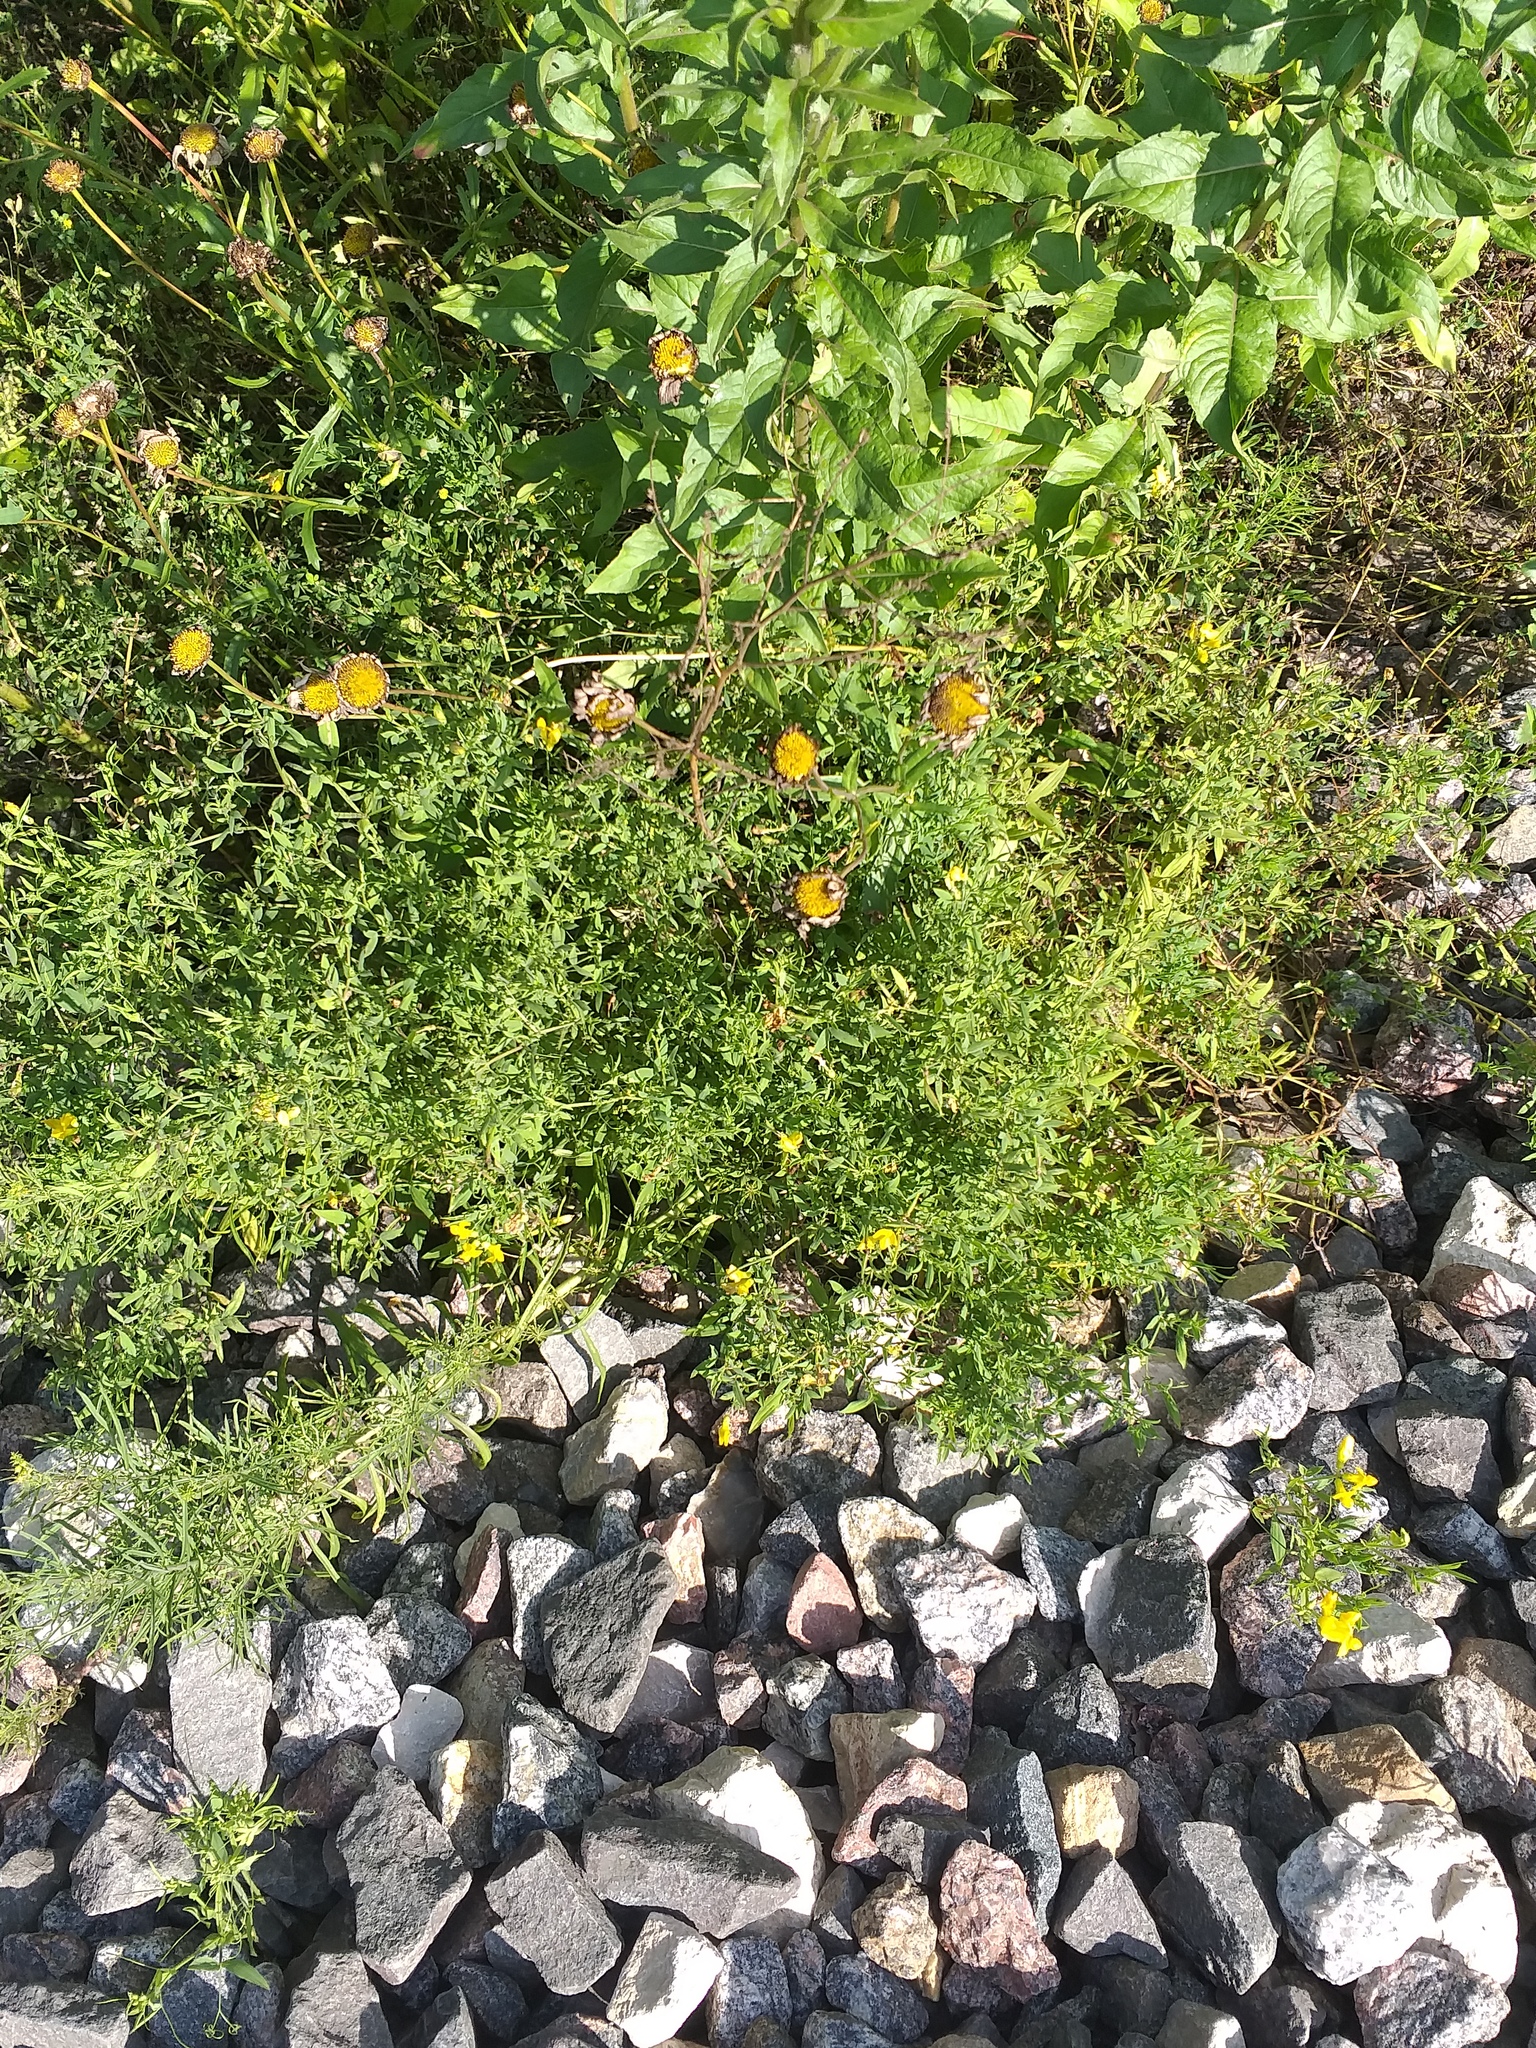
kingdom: Plantae
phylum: Tracheophyta
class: Magnoliopsida
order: Fabales
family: Fabaceae
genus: Lathyrus
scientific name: Lathyrus pratensis
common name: Meadow vetchling
